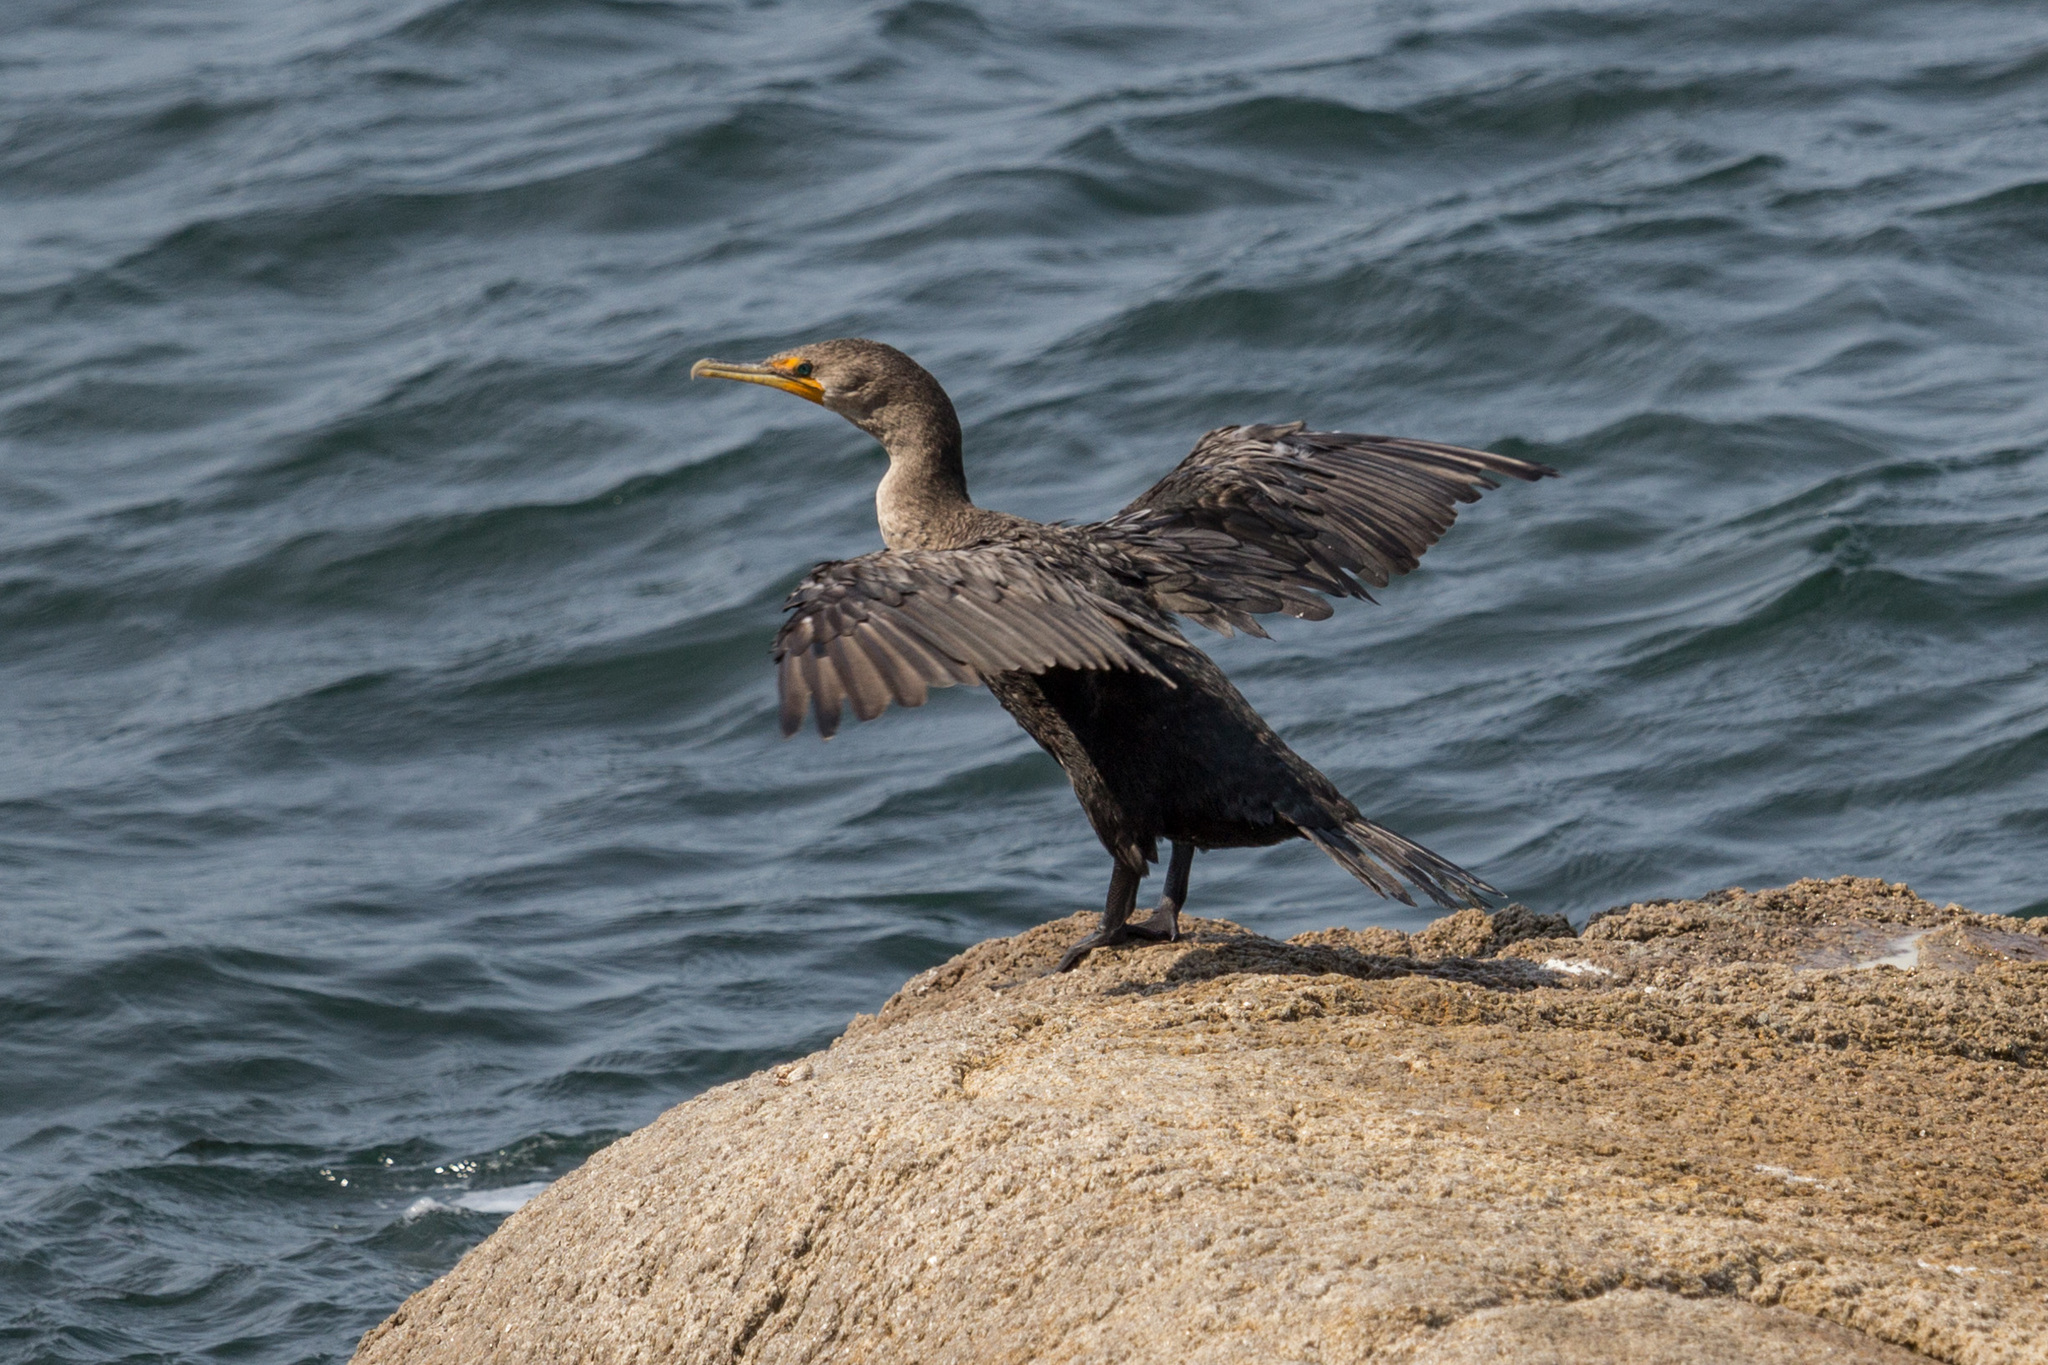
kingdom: Animalia
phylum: Chordata
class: Aves
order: Suliformes
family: Phalacrocoracidae
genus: Phalacrocorax
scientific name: Phalacrocorax auritus
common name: Double-crested cormorant
